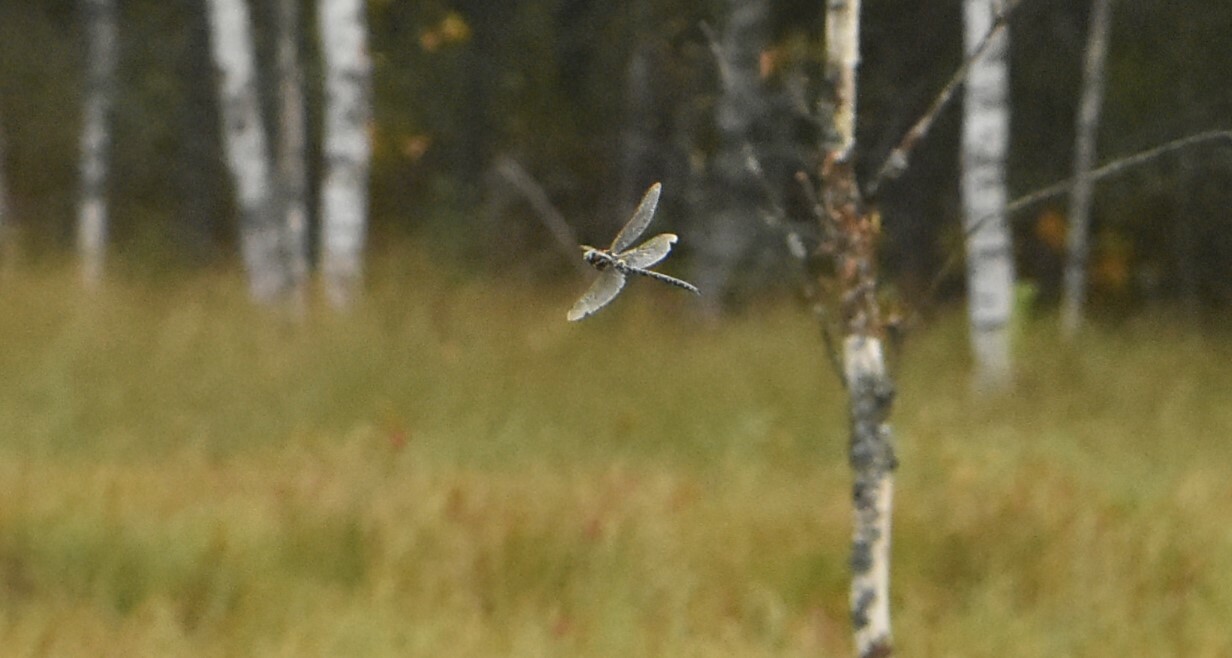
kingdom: Animalia
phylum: Arthropoda
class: Insecta
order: Odonata
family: Aeshnidae
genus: Aeshna
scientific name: Aeshna juncea
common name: Moorland hawker
